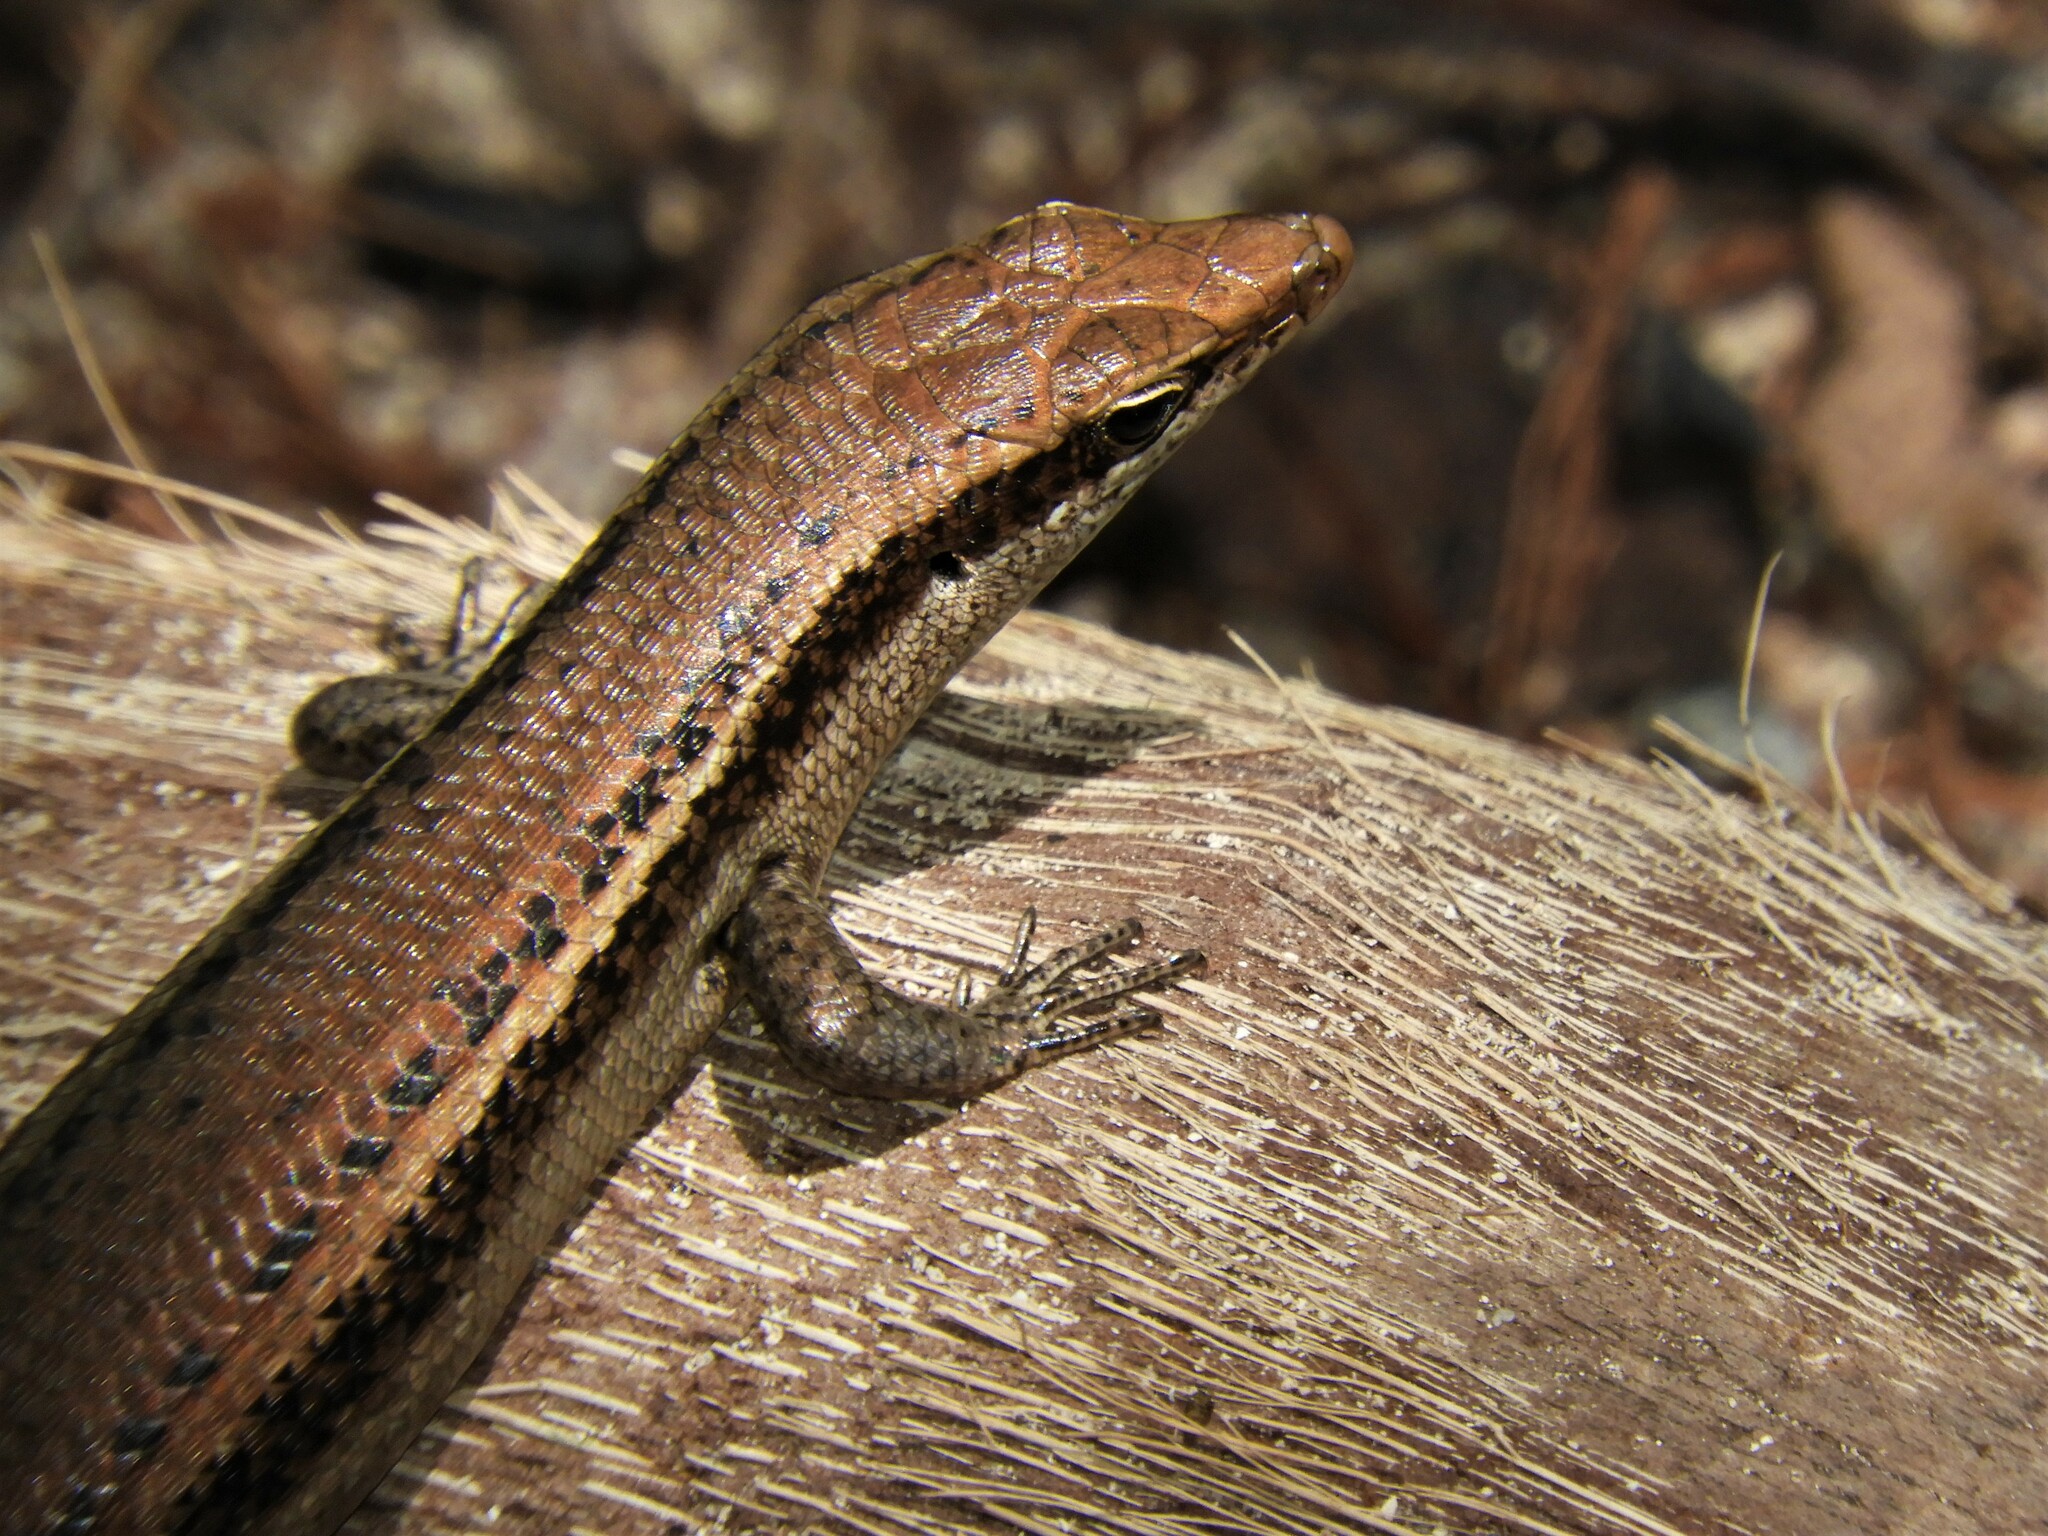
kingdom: Animalia
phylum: Chordata
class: Squamata
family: Scincidae
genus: Trachylepis
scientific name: Trachylepis sechellensis
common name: Seychelles skink
